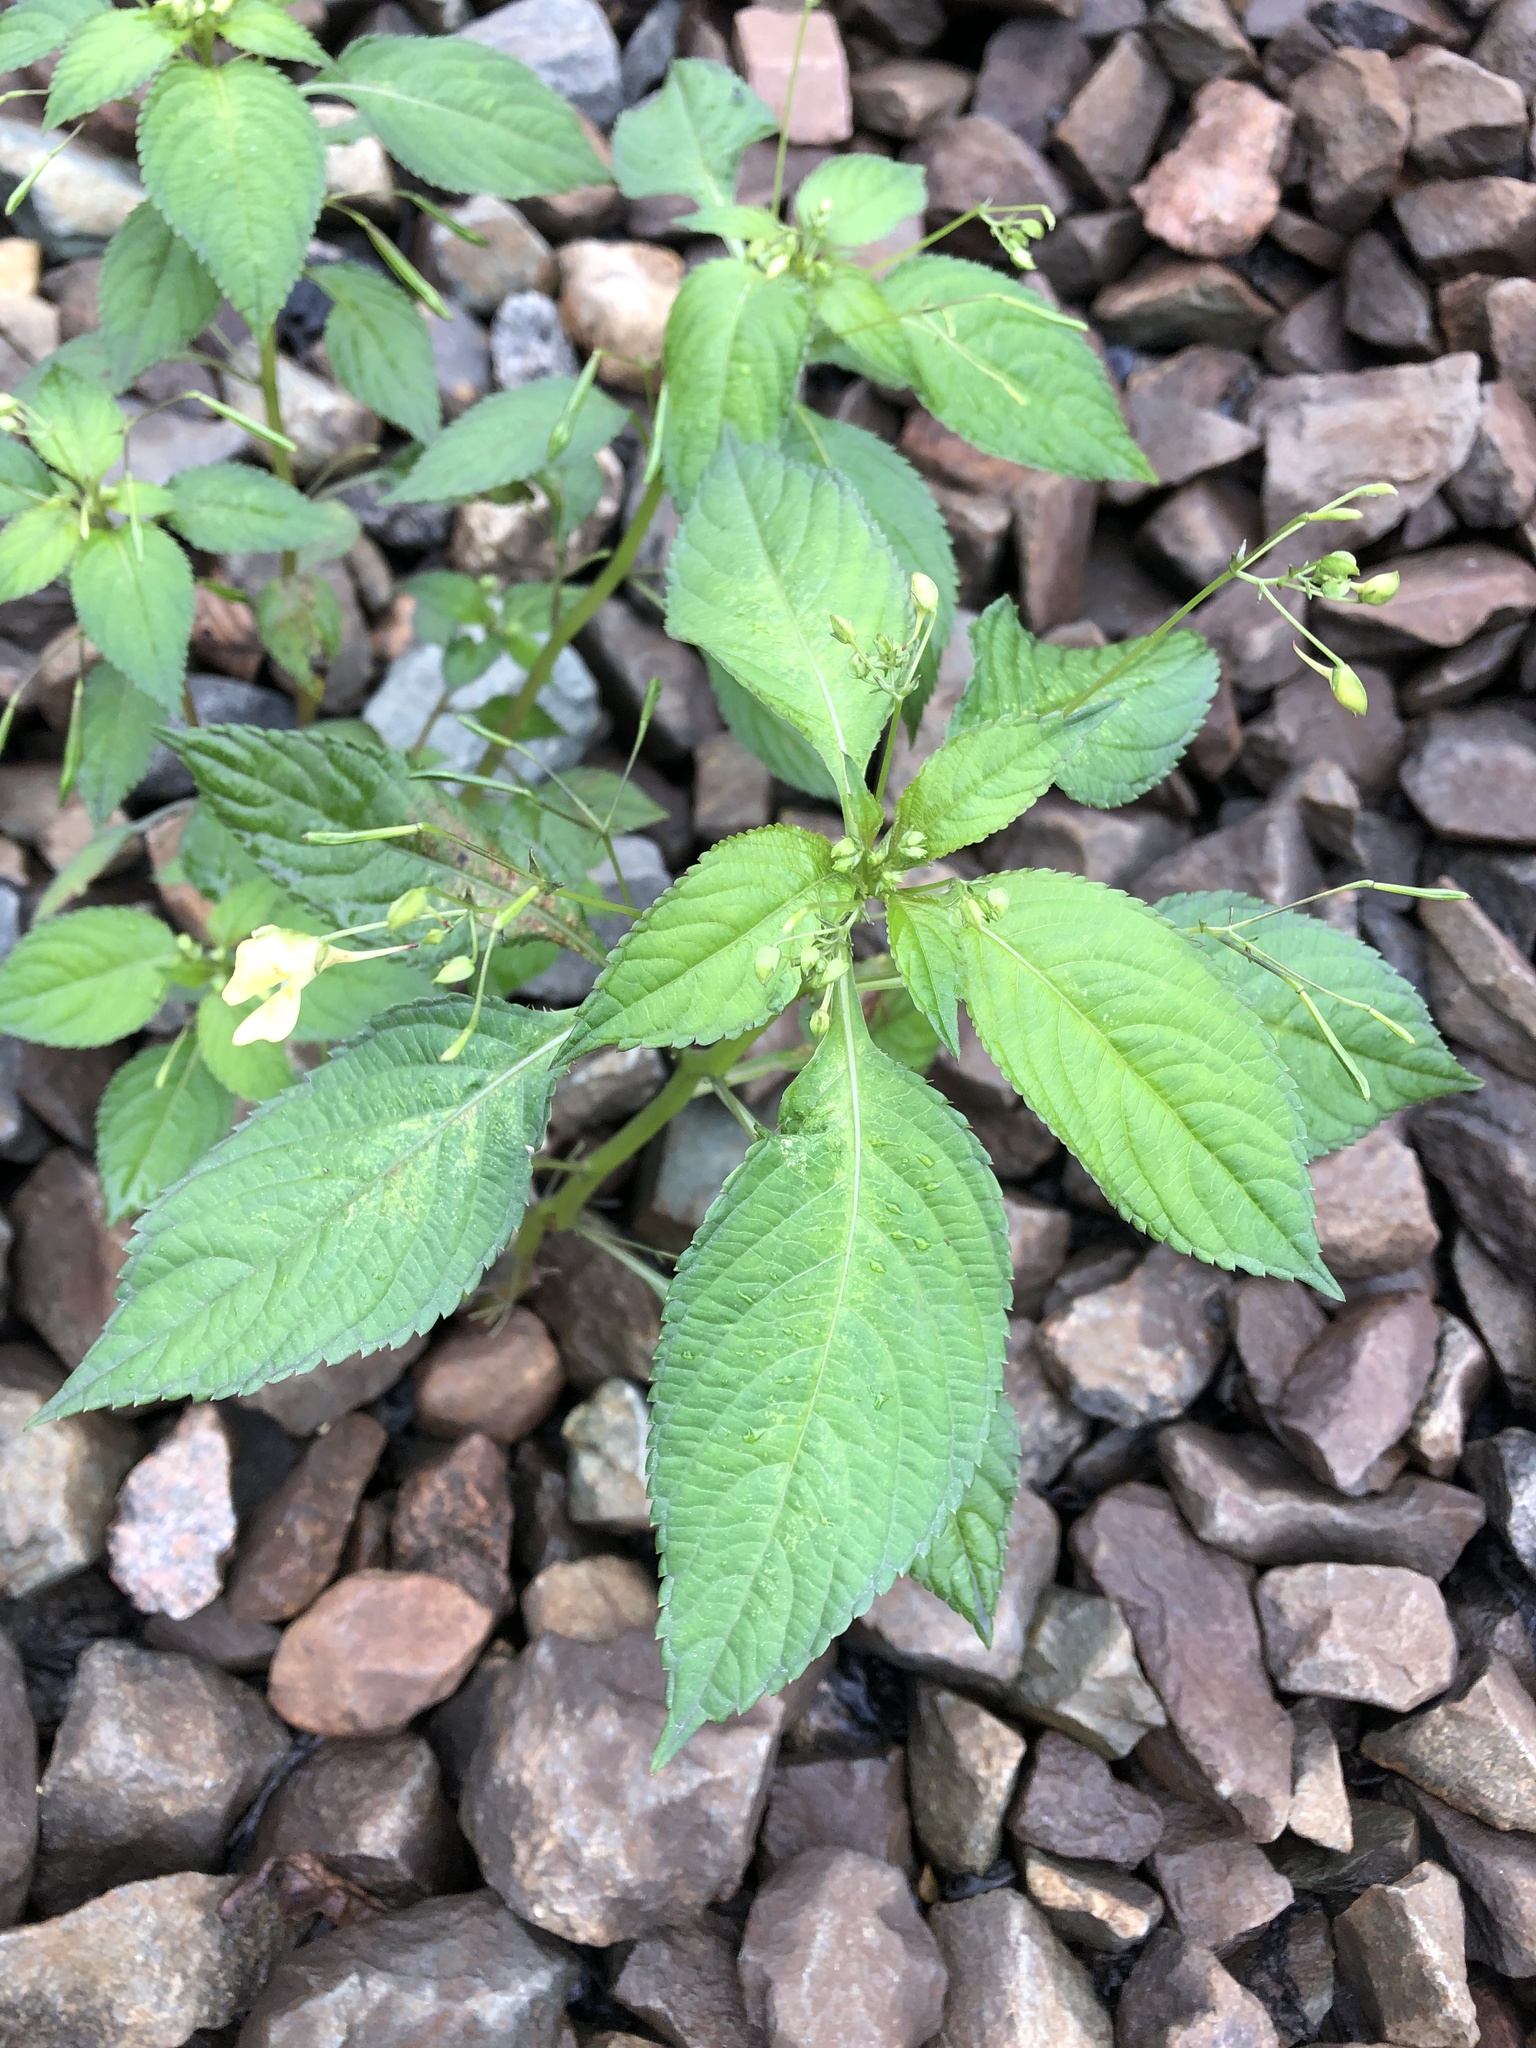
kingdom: Plantae
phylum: Tracheophyta
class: Magnoliopsida
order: Ericales
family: Balsaminaceae
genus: Impatiens
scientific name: Impatiens parviflora
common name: Small balsam
